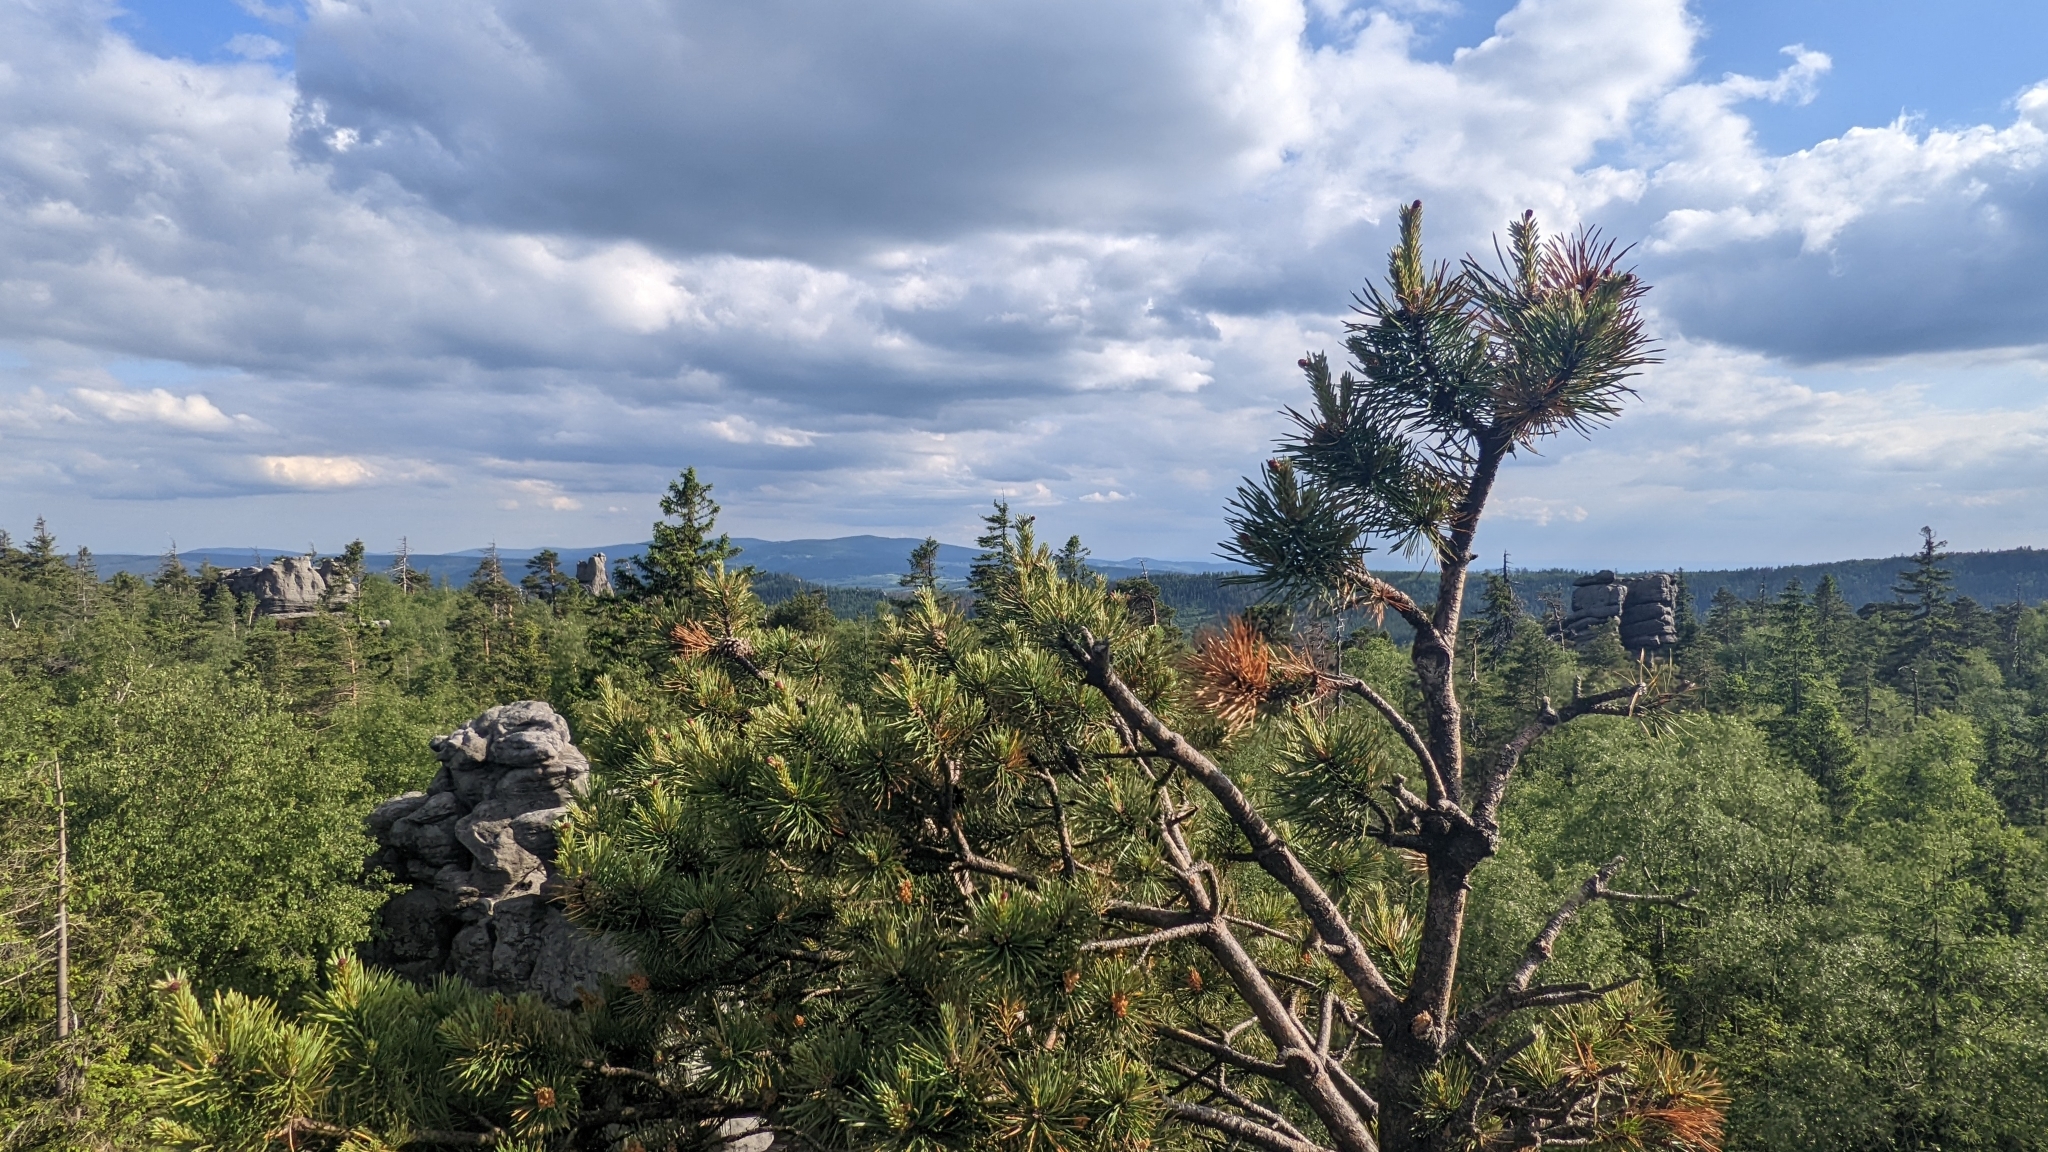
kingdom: Plantae
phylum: Tracheophyta
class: Pinopsida
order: Pinales
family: Pinaceae
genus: Pinus
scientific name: Pinus sylvestris
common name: Scots pine
